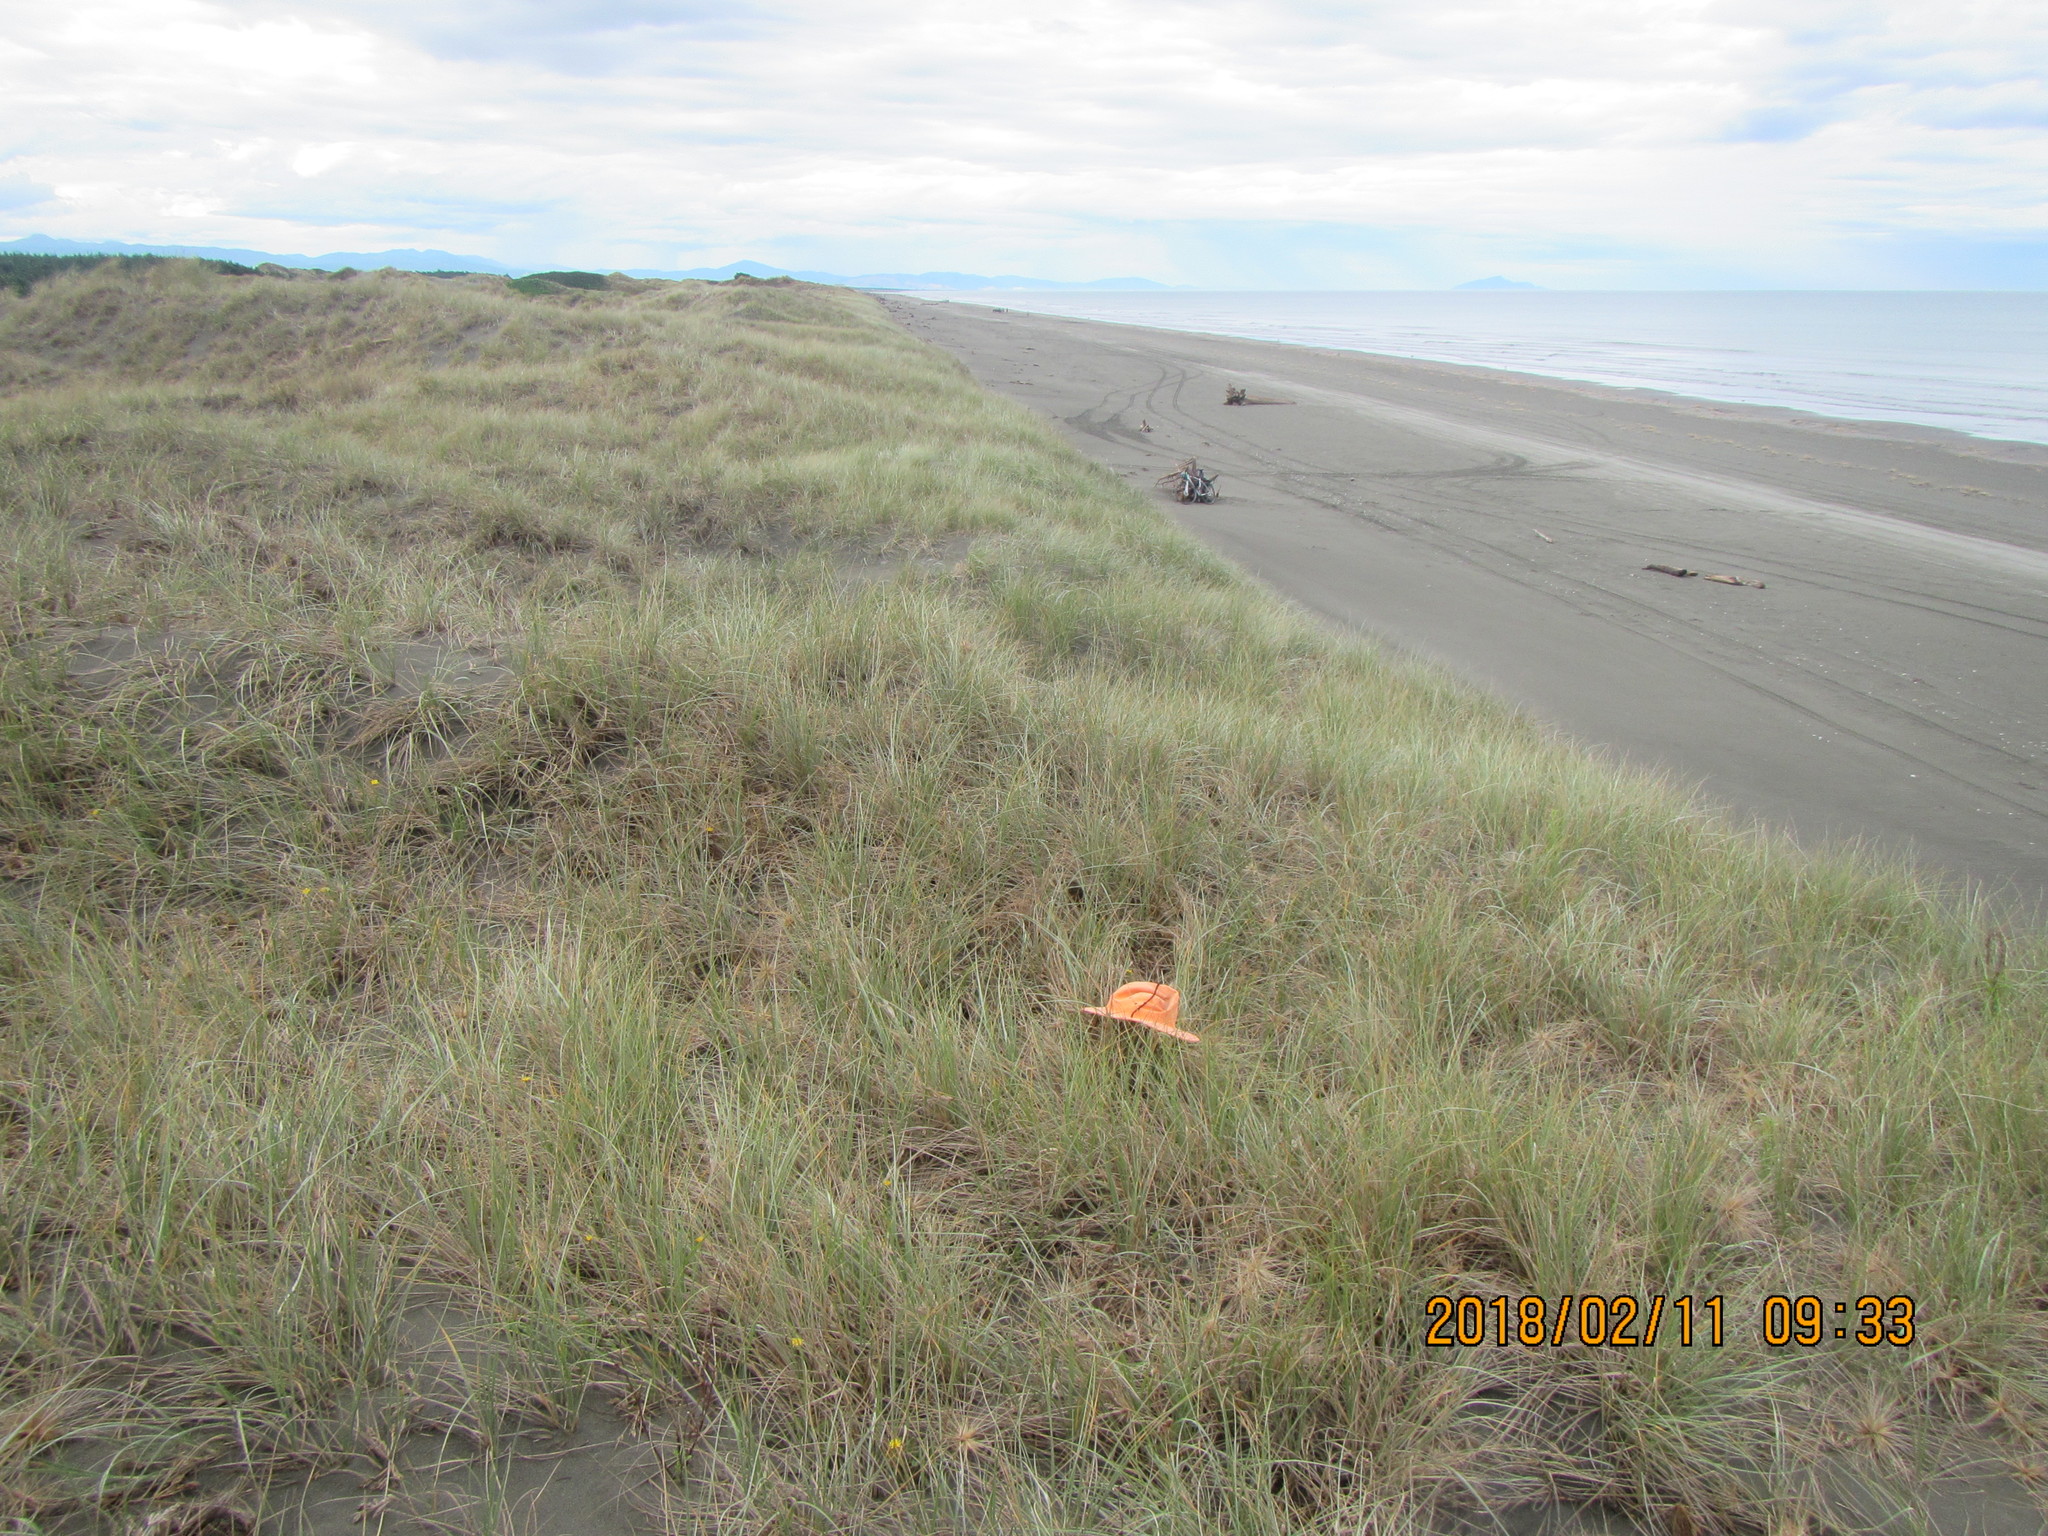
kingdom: Animalia
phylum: Arthropoda
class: Arachnida
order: Araneae
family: Thomisidae
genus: Sidymella
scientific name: Sidymella trapezia
